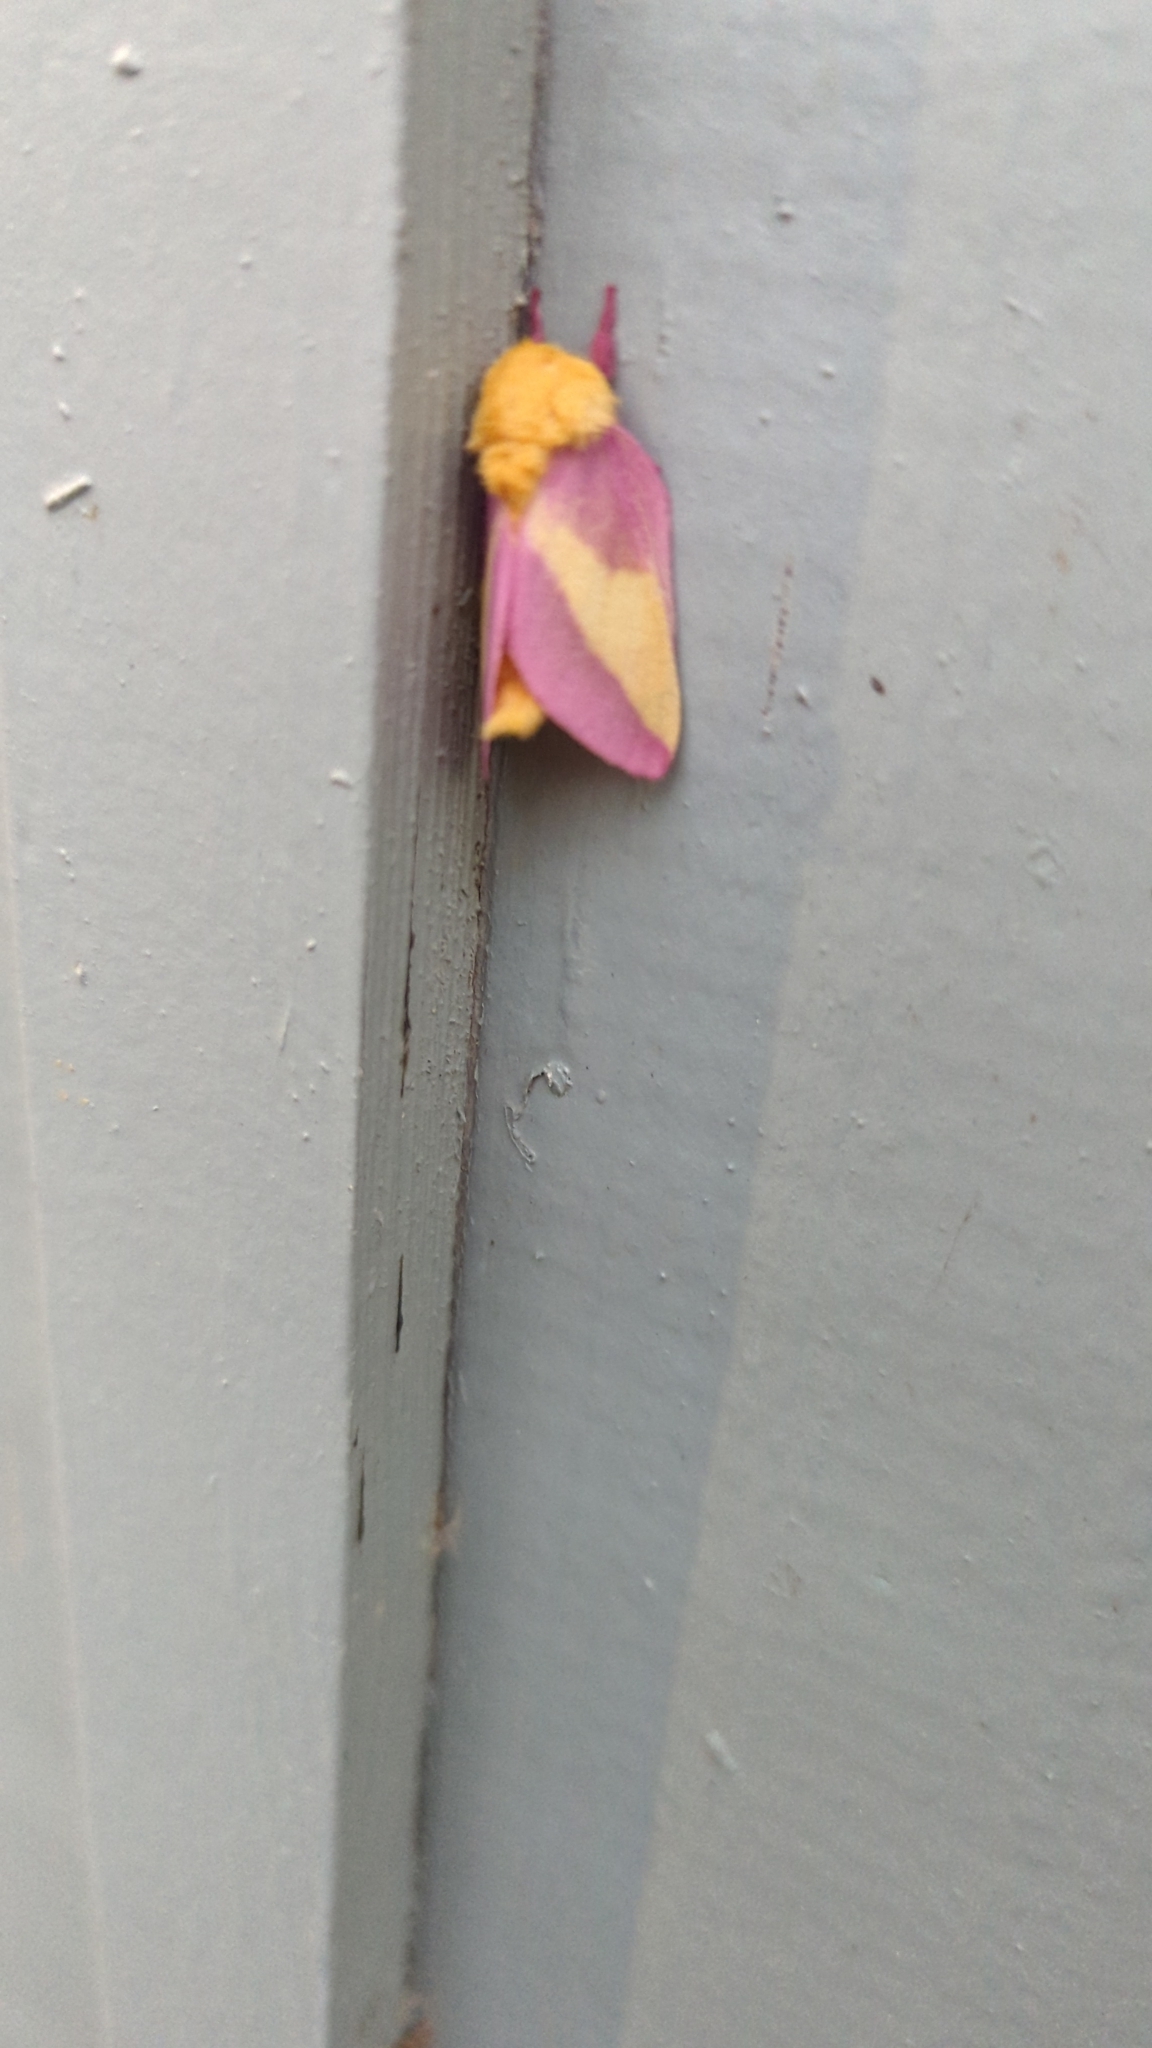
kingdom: Animalia
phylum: Arthropoda
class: Insecta
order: Lepidoptera
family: Saturniidae
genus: Dryocampa
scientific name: Dryocampa rubicunda
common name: Rosy maple moth
